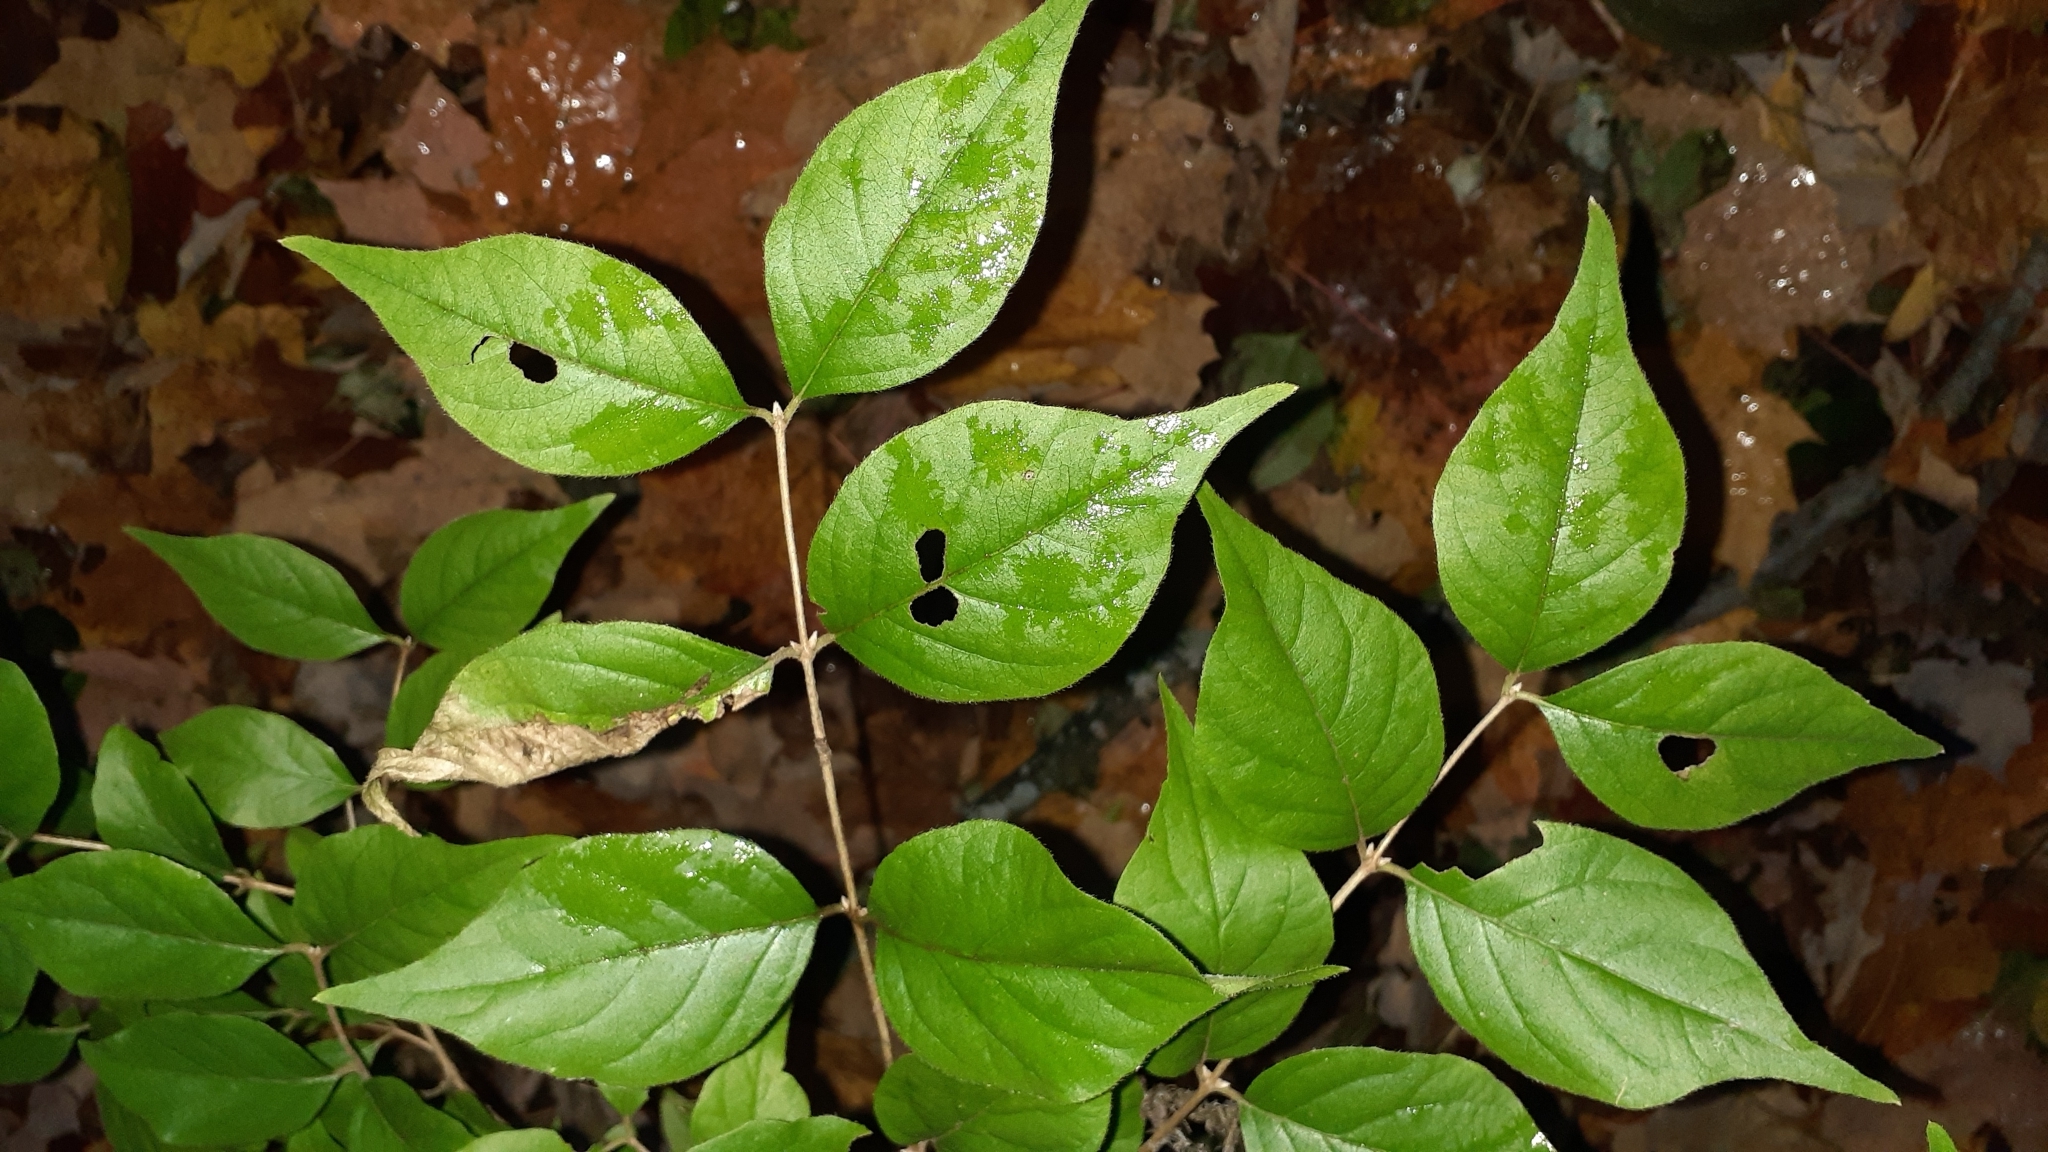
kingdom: Plantae
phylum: Tracheophyta
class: Magnoliopsida
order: Dipsacales
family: Caprifoliaceae
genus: Lonicera
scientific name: Lonicera maackii
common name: Amur honeysuckle
